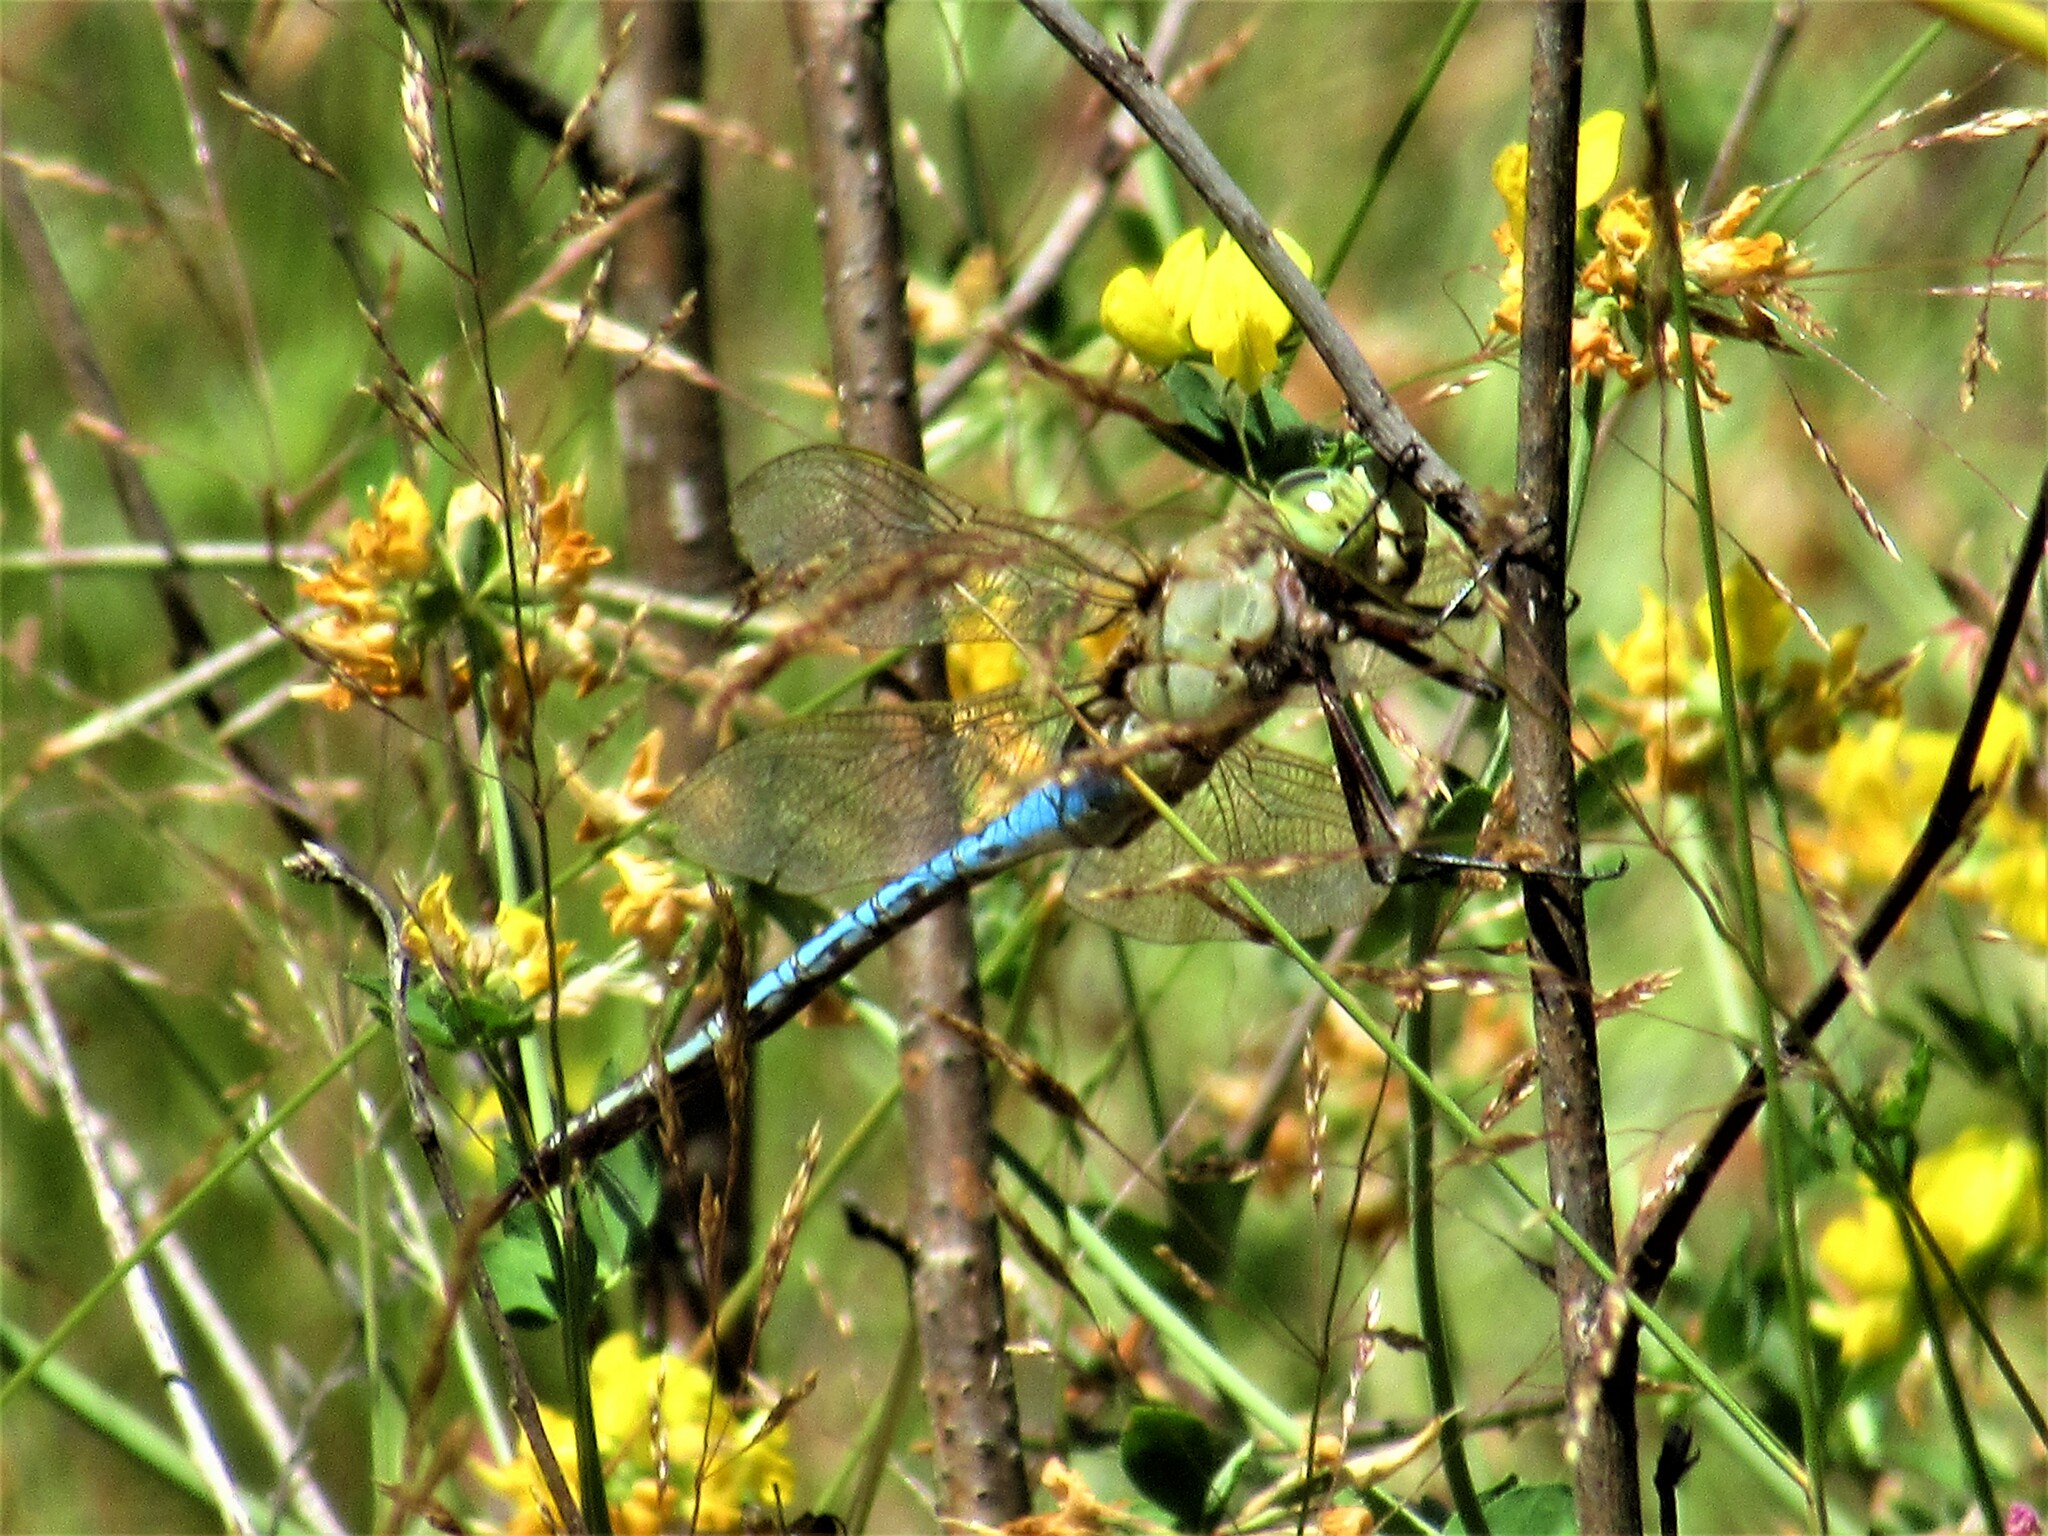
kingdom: Animalia
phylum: Arthropoda
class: Insecta
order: Odonata
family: Aeshnidae
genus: Anax
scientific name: Anax junius
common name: Common green darner
